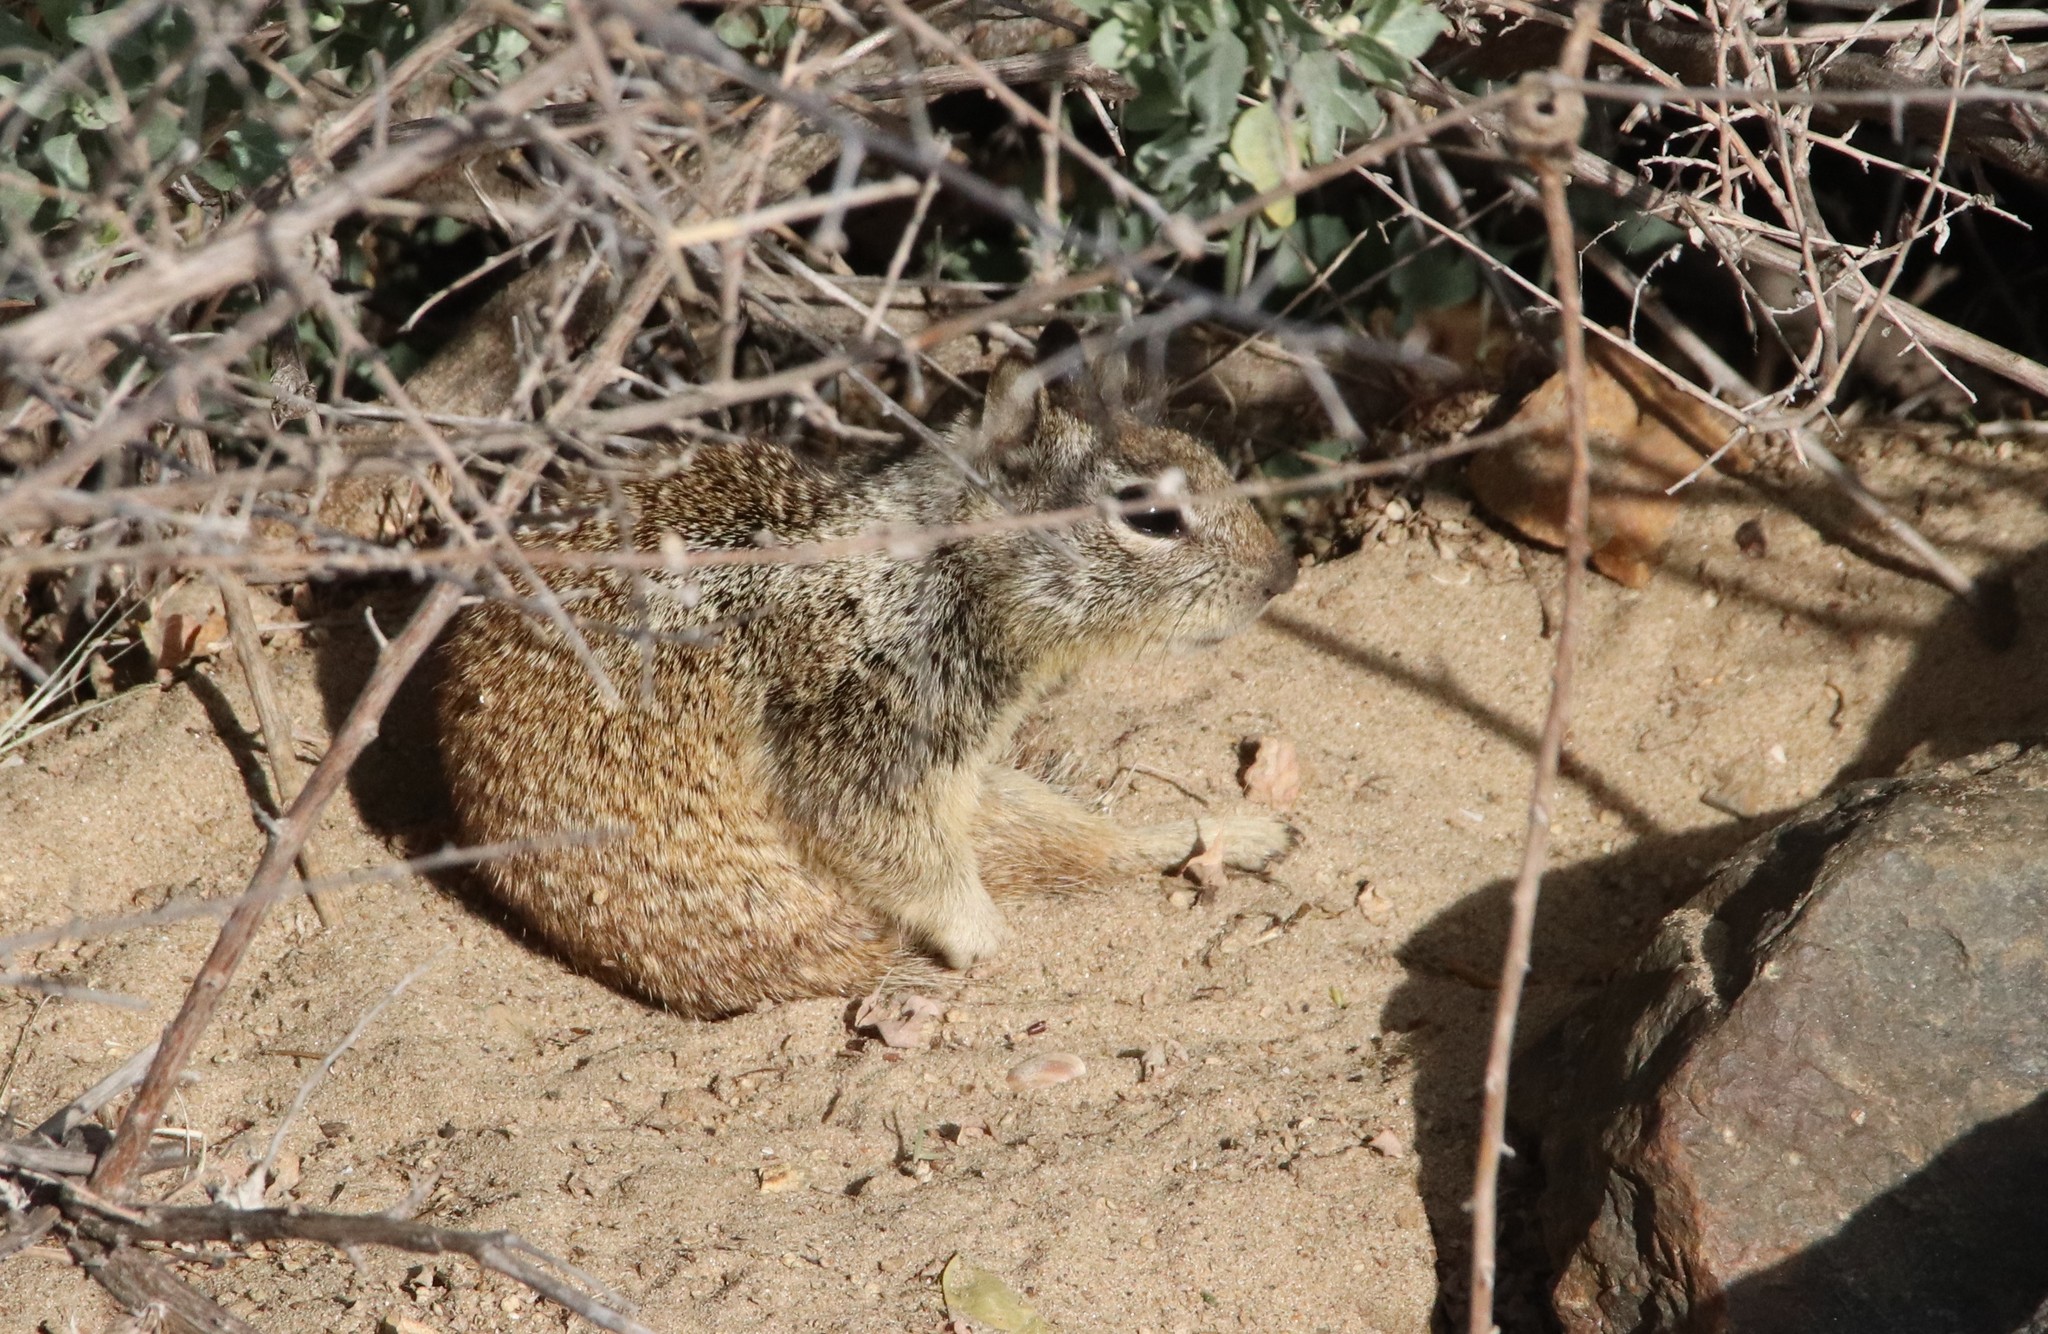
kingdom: Animalia
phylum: Chordata
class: Mammalia
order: Rodentia
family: Sciuridae
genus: Otospermophilus
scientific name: Otospermophilus beecheyi
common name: California ground squirrel
